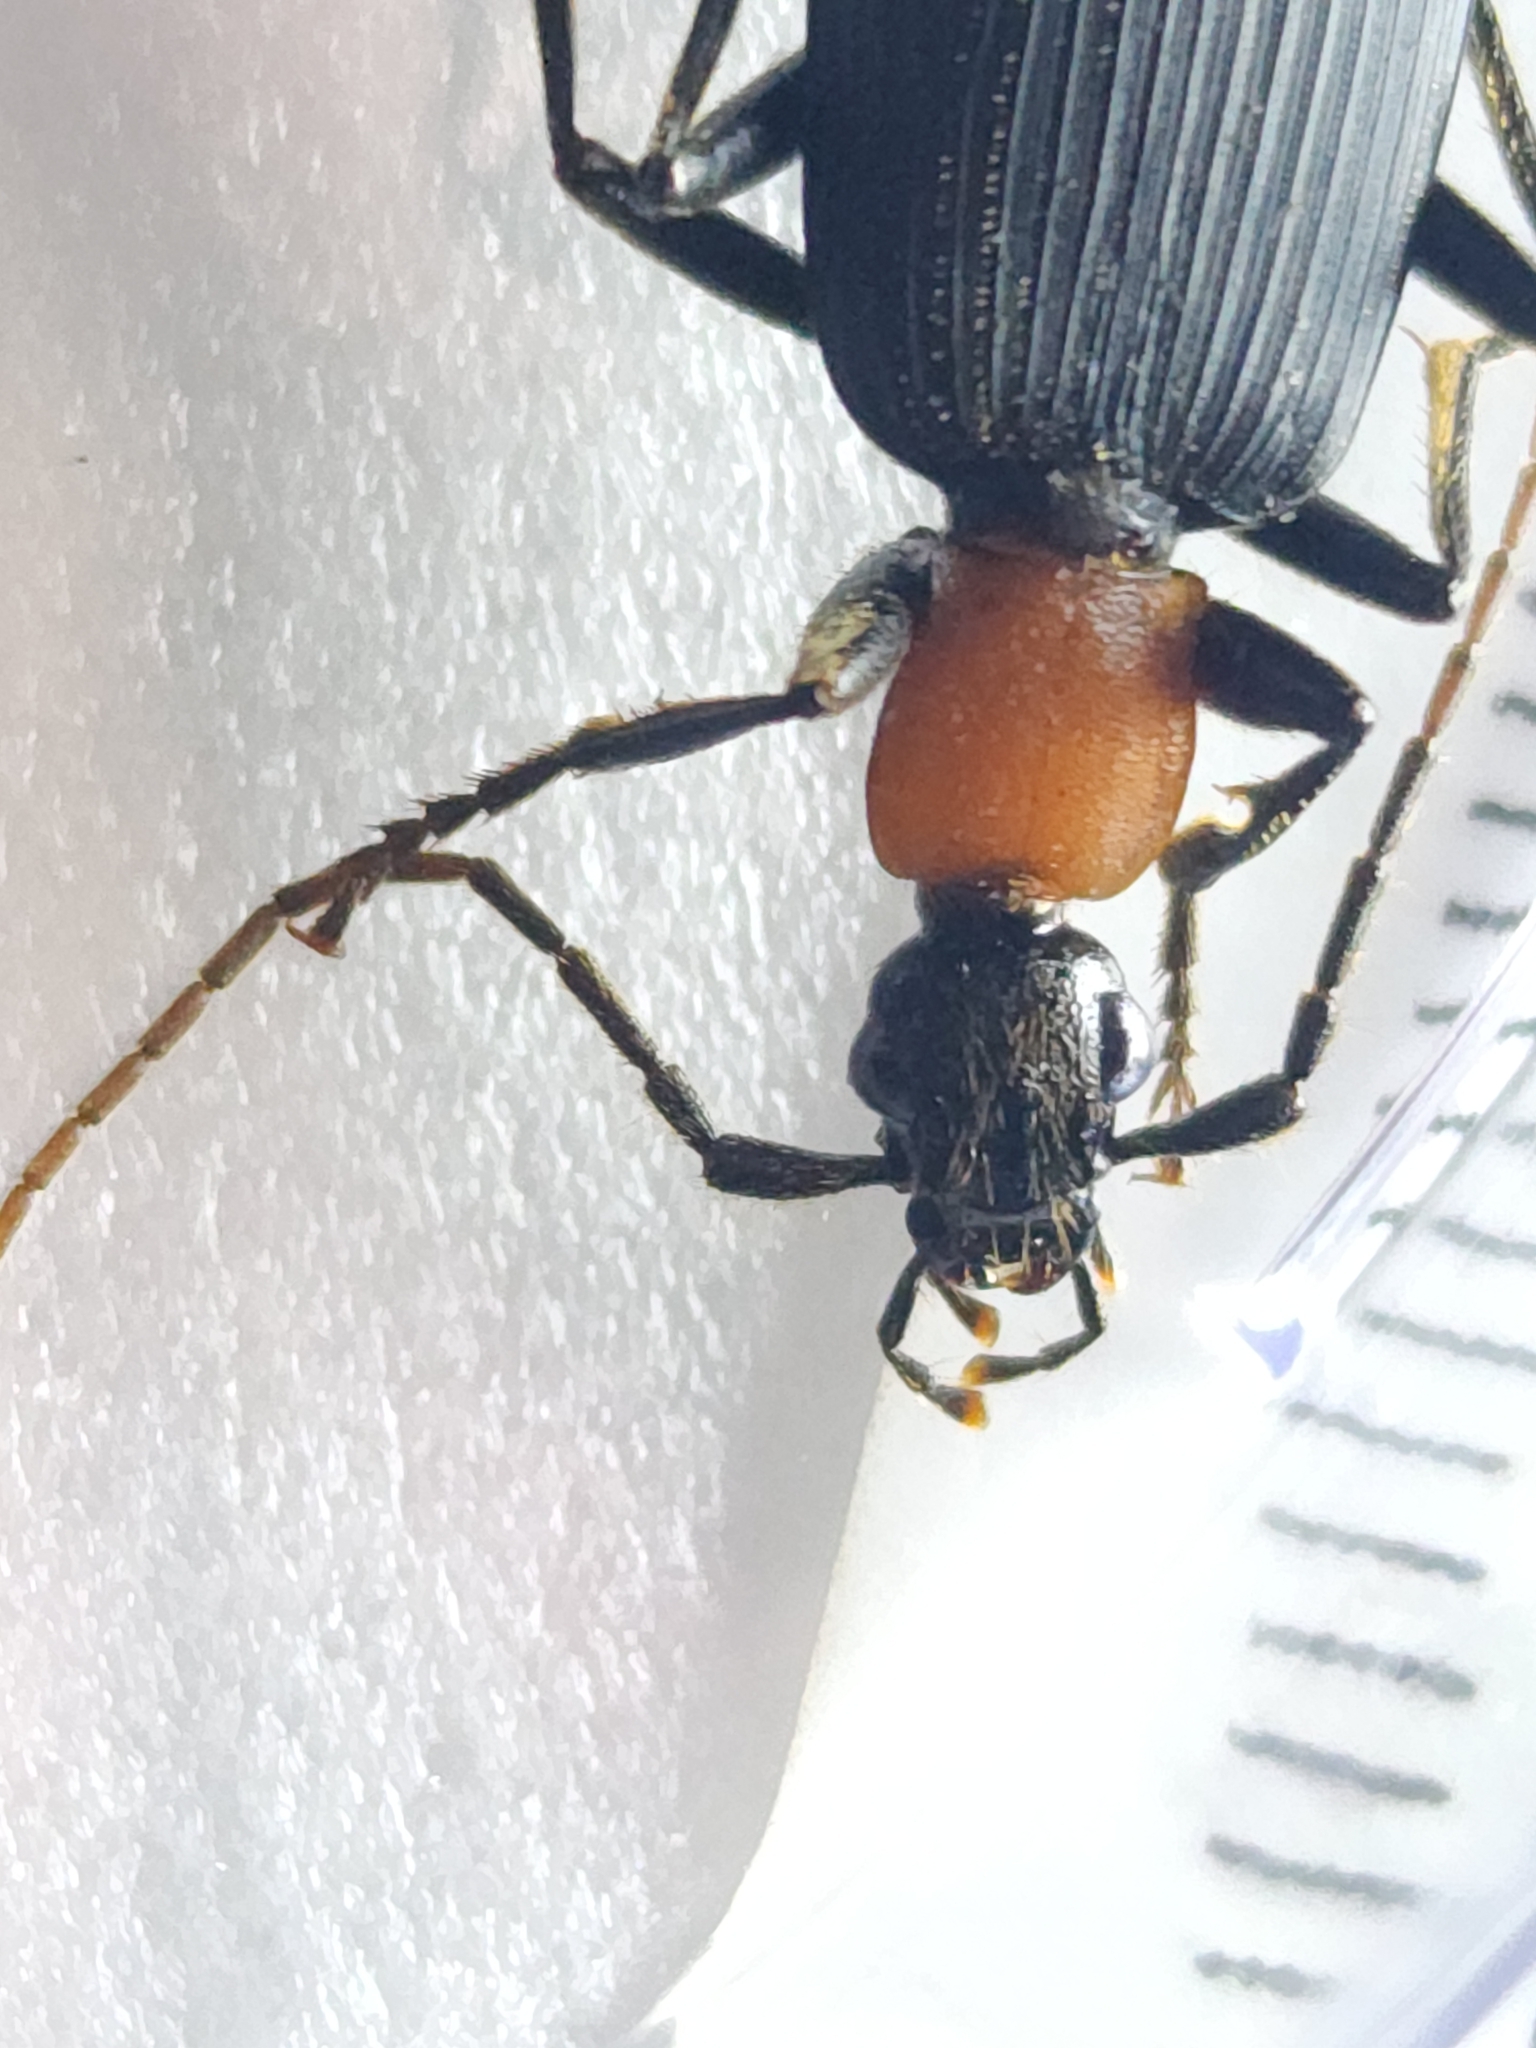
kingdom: Animalia
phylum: Arthropoda
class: Insecta
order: Coleoptera
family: Carabidae
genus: Galerita
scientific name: Galerita collaris
